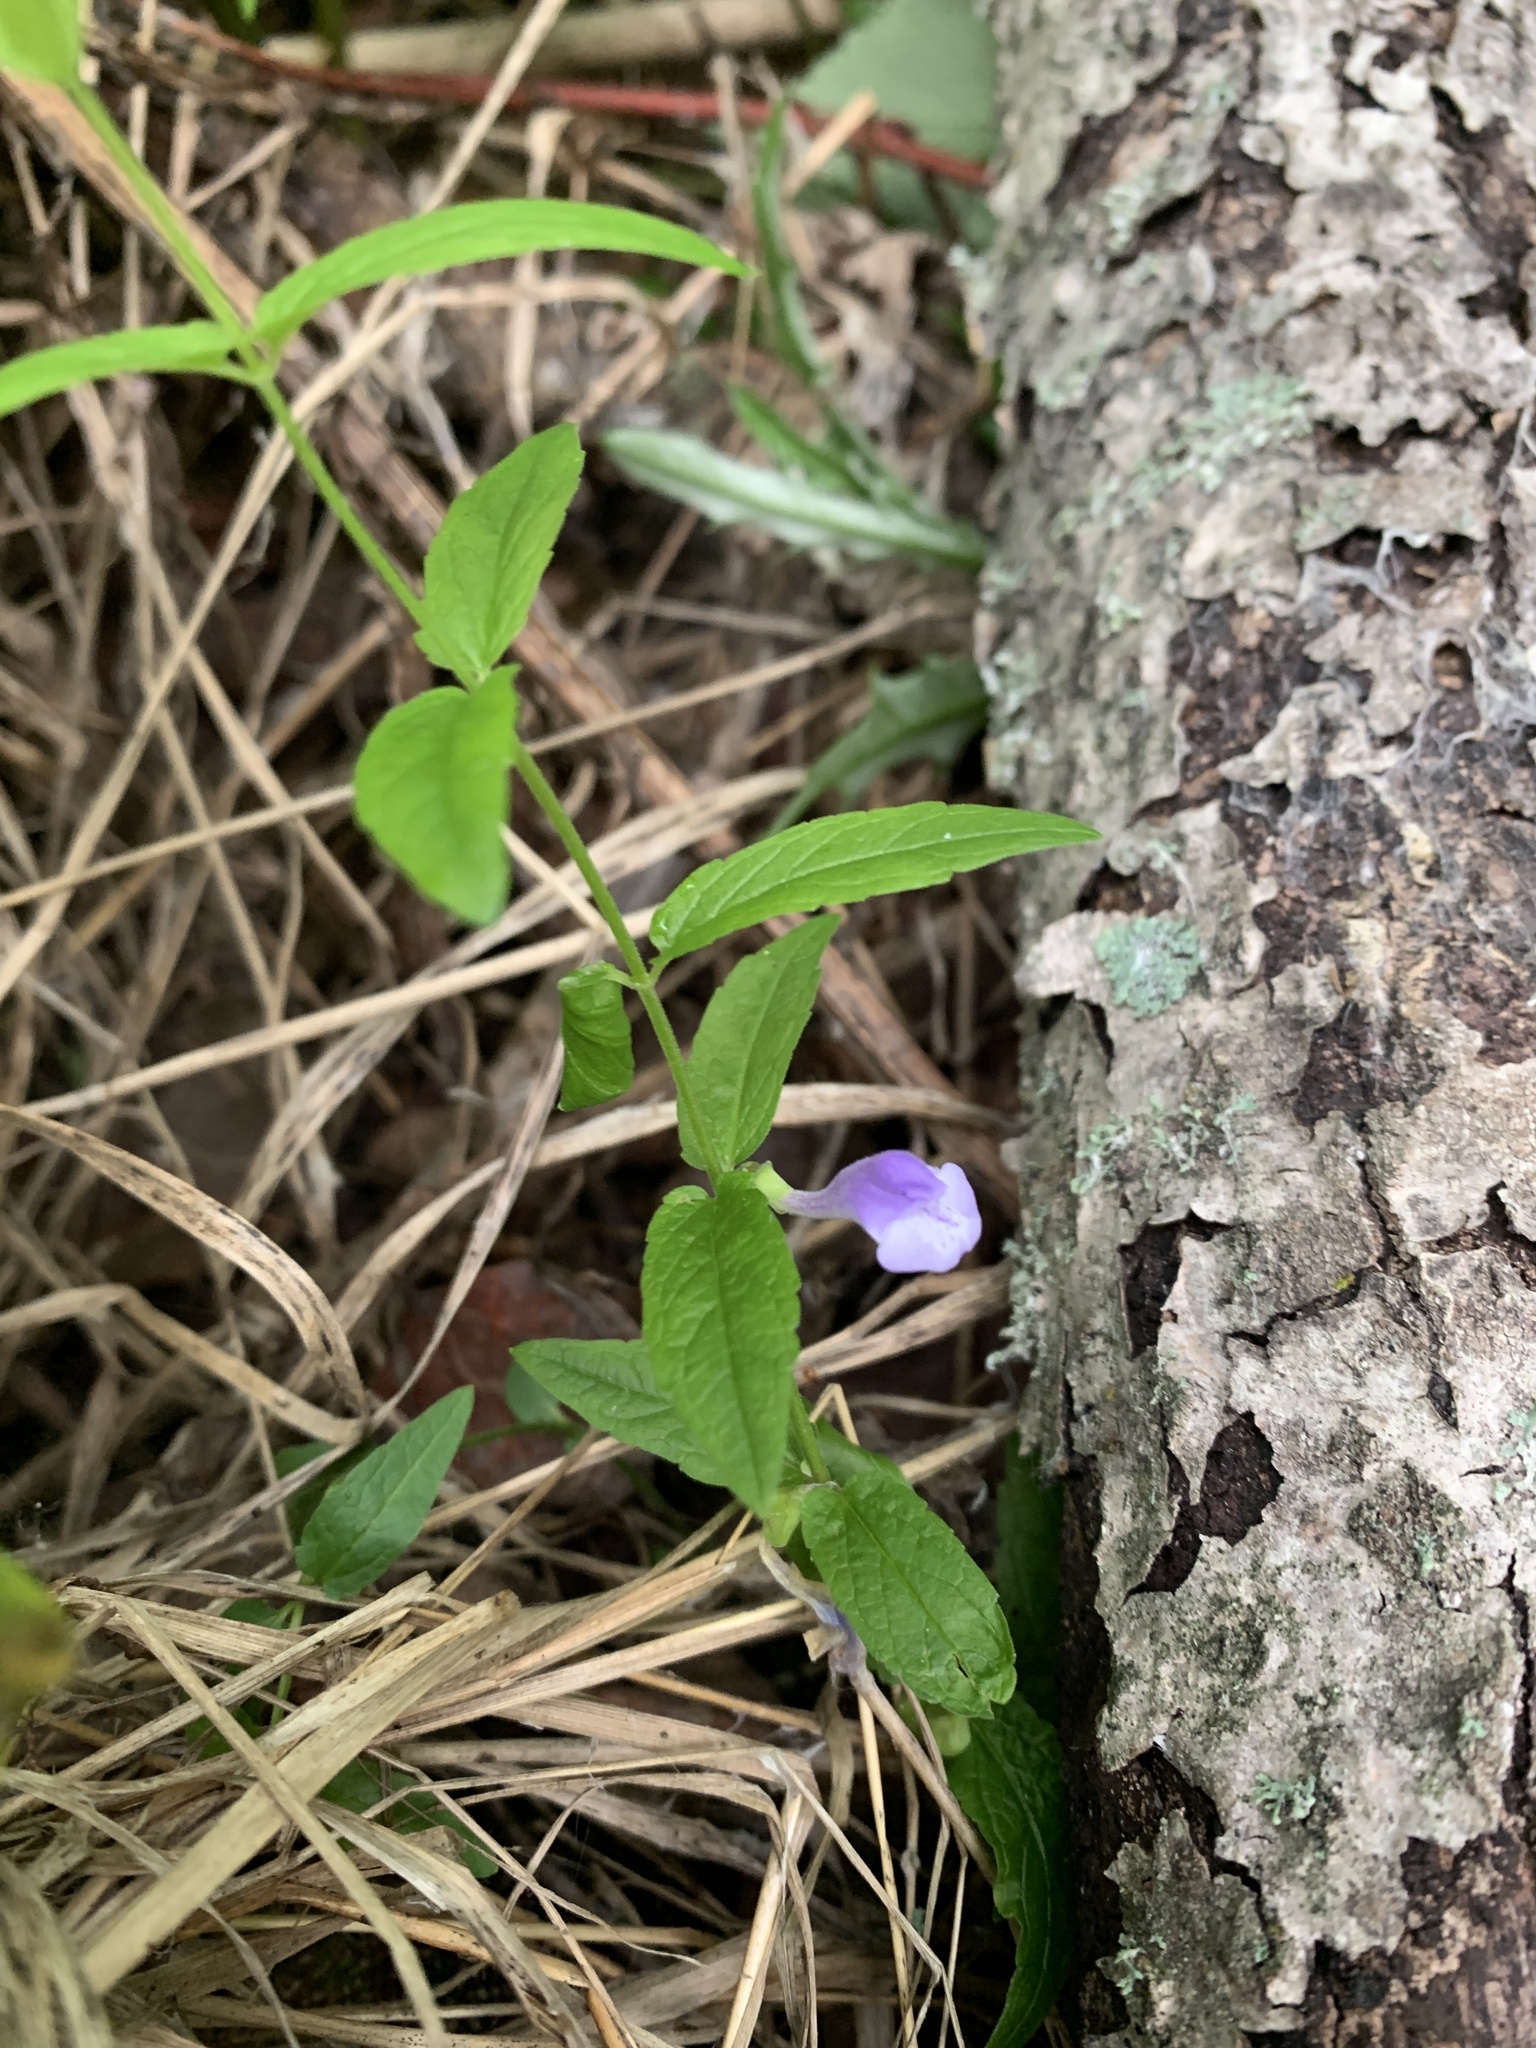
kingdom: Plantae
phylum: Tracheophyta
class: Magnoliopsida
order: Lamiales
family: Lamiaceae
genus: Scutellaria
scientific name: Scutellaria galericulata
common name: Skullcap
